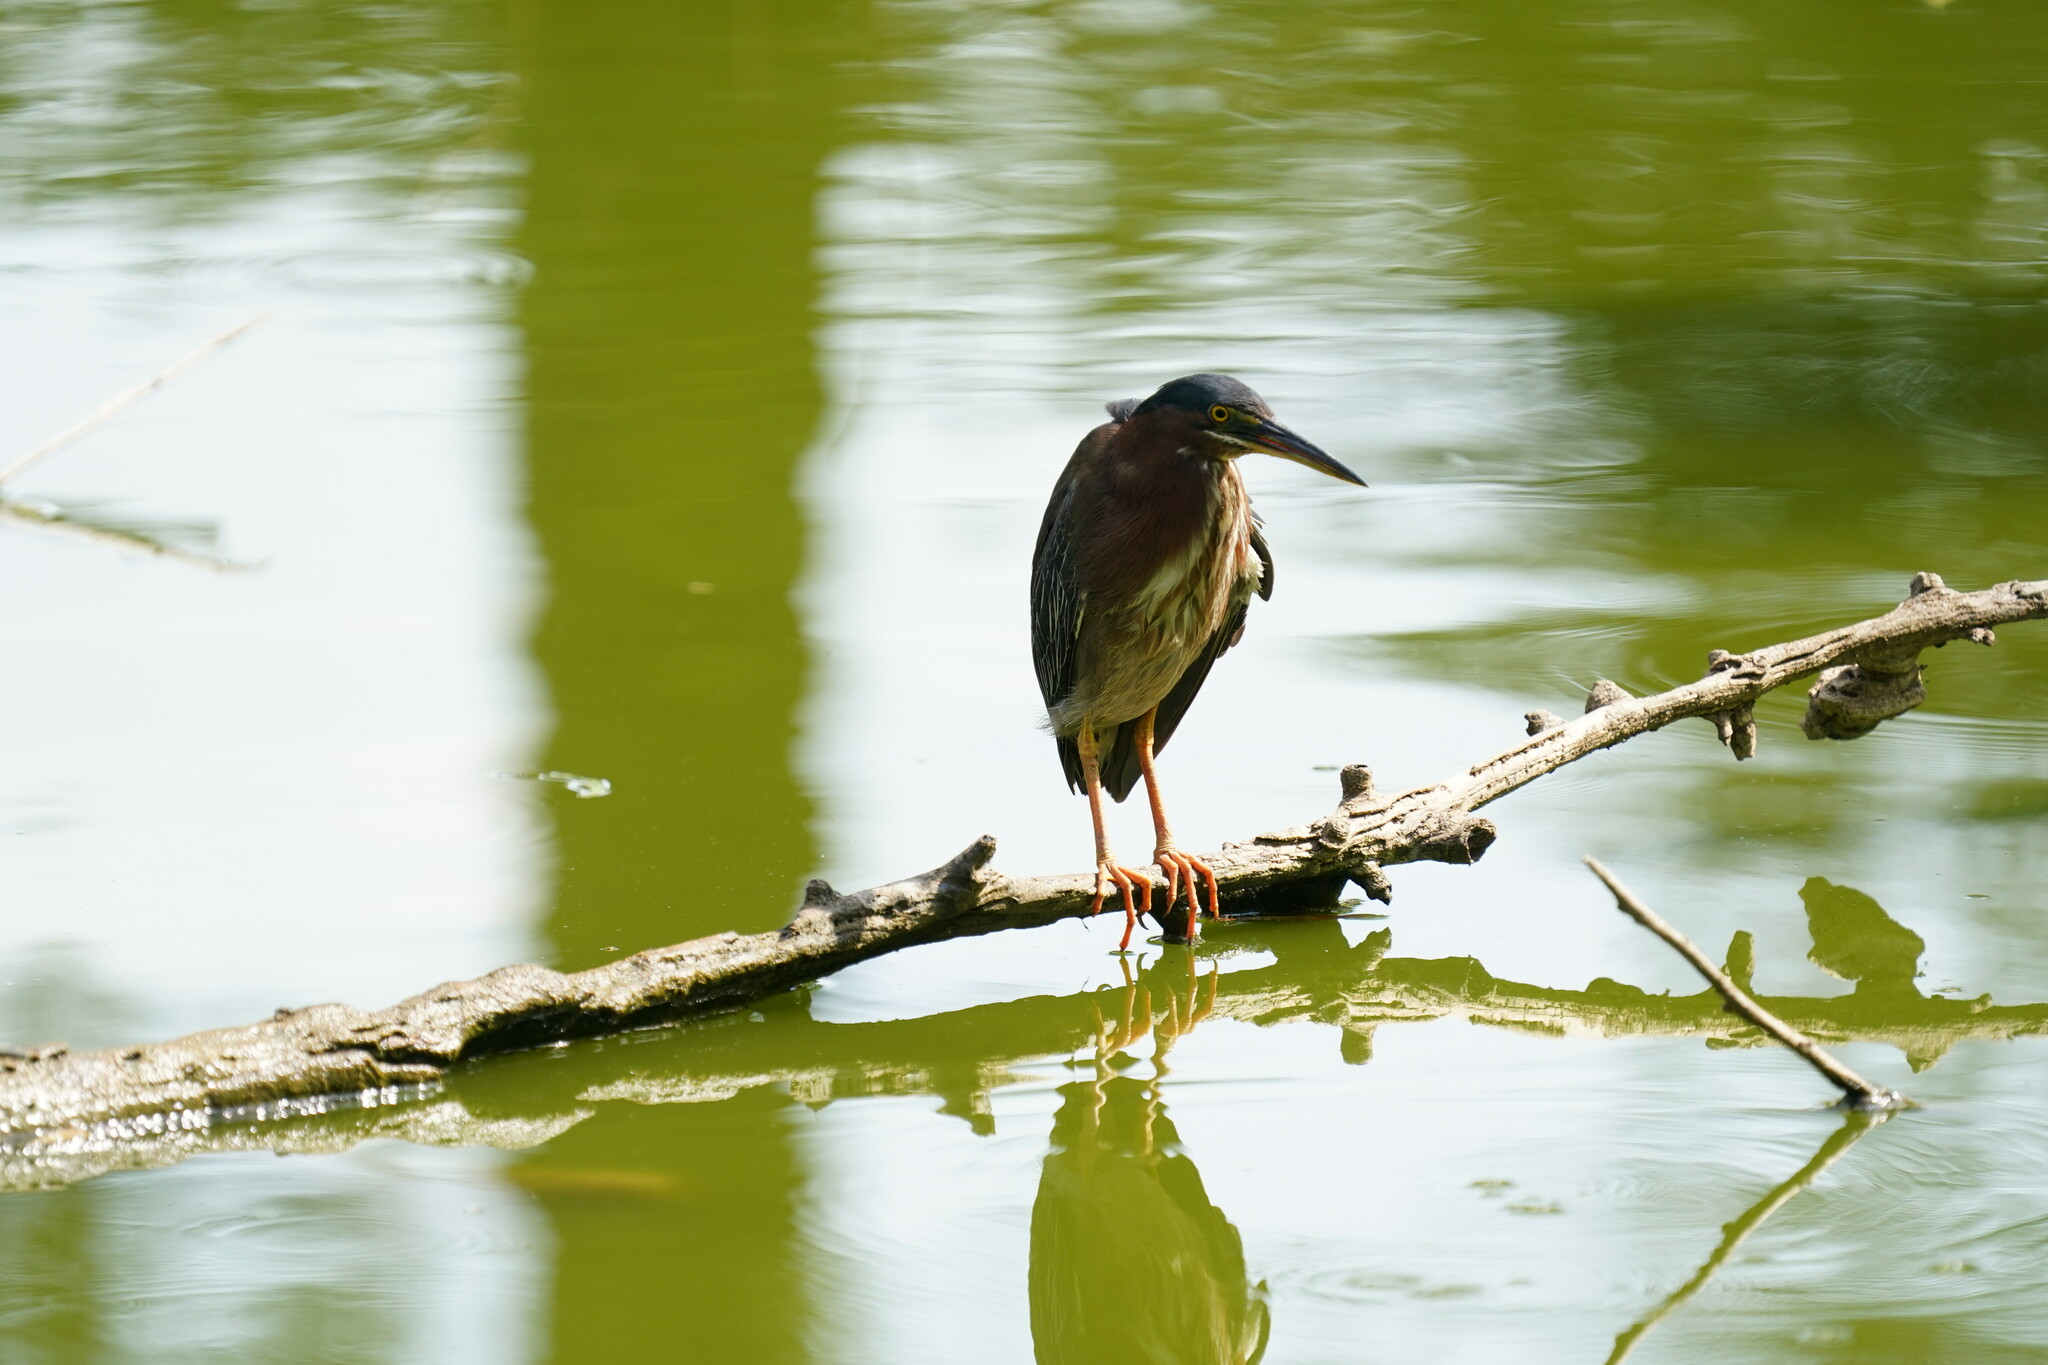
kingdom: Animalia
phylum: Chordata
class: Aves
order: Pelecaniformes
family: Ardeidae
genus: Butorides
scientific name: Butorides virescens
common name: Green heron
